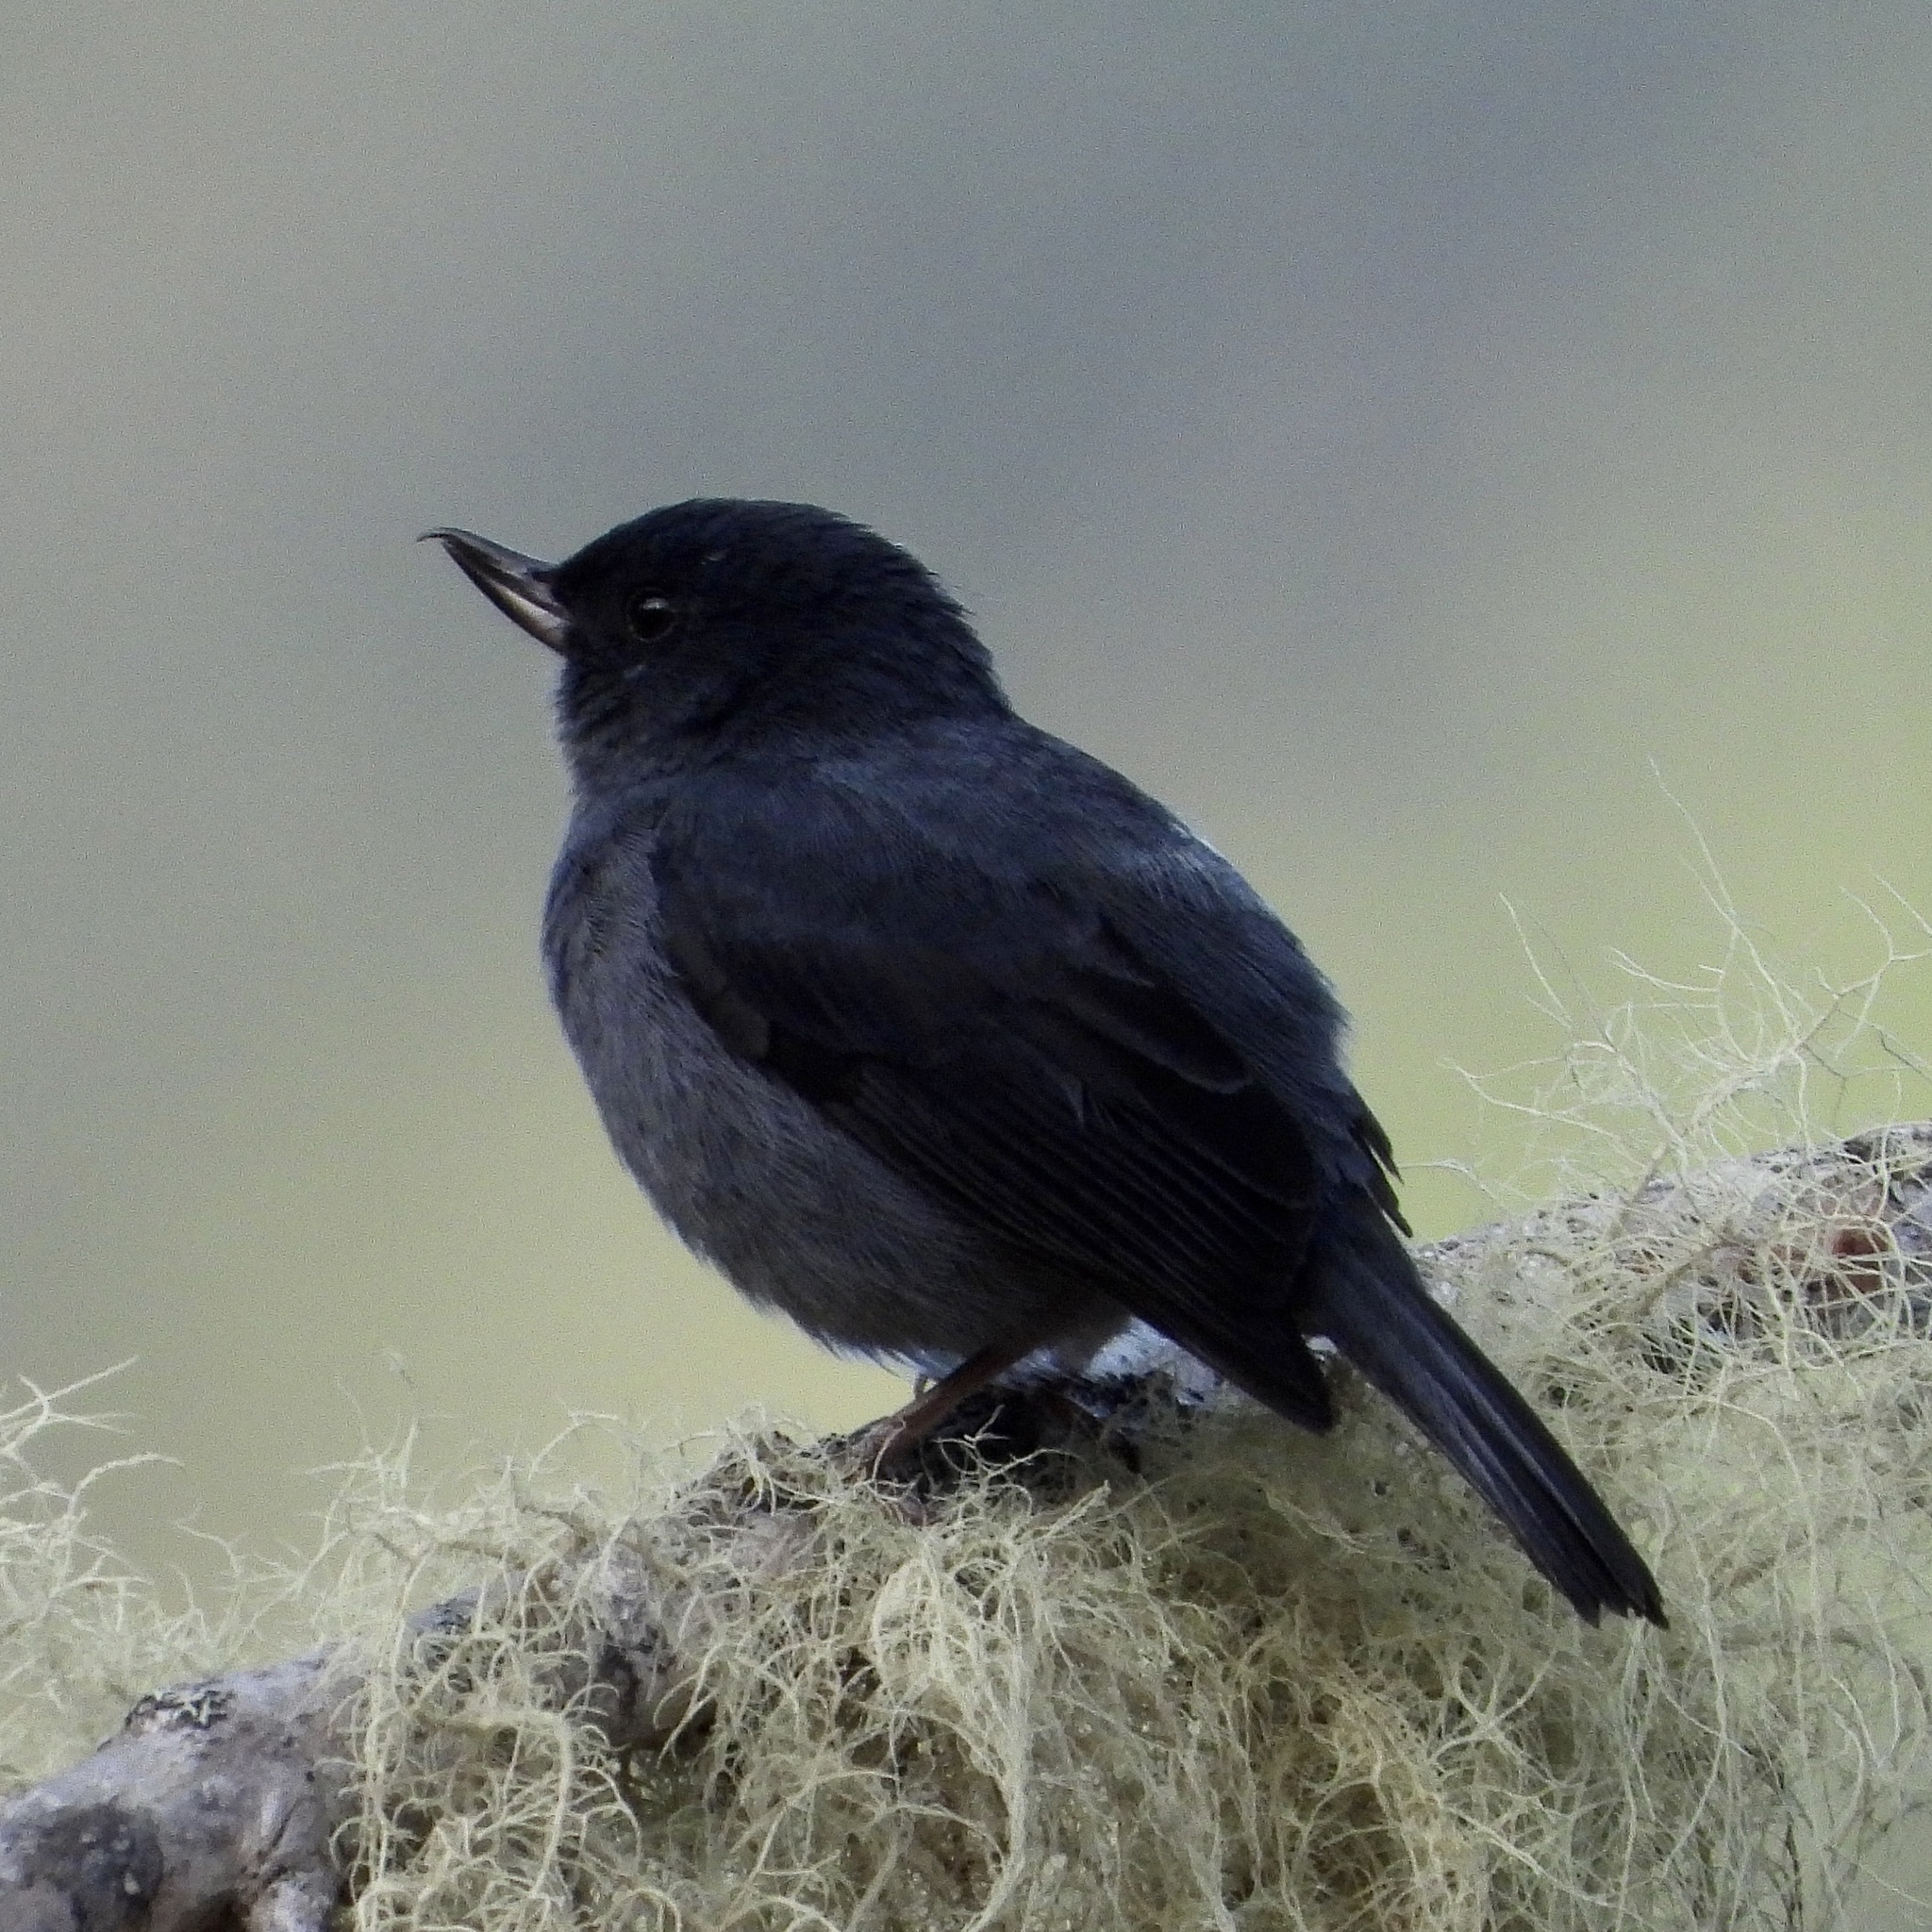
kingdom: Animalia
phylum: Chordata
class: Aves
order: Passeriformes
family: Thraupidae
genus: Diglossa
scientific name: Diglossa plumbea
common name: Slaty flowerpiercer
